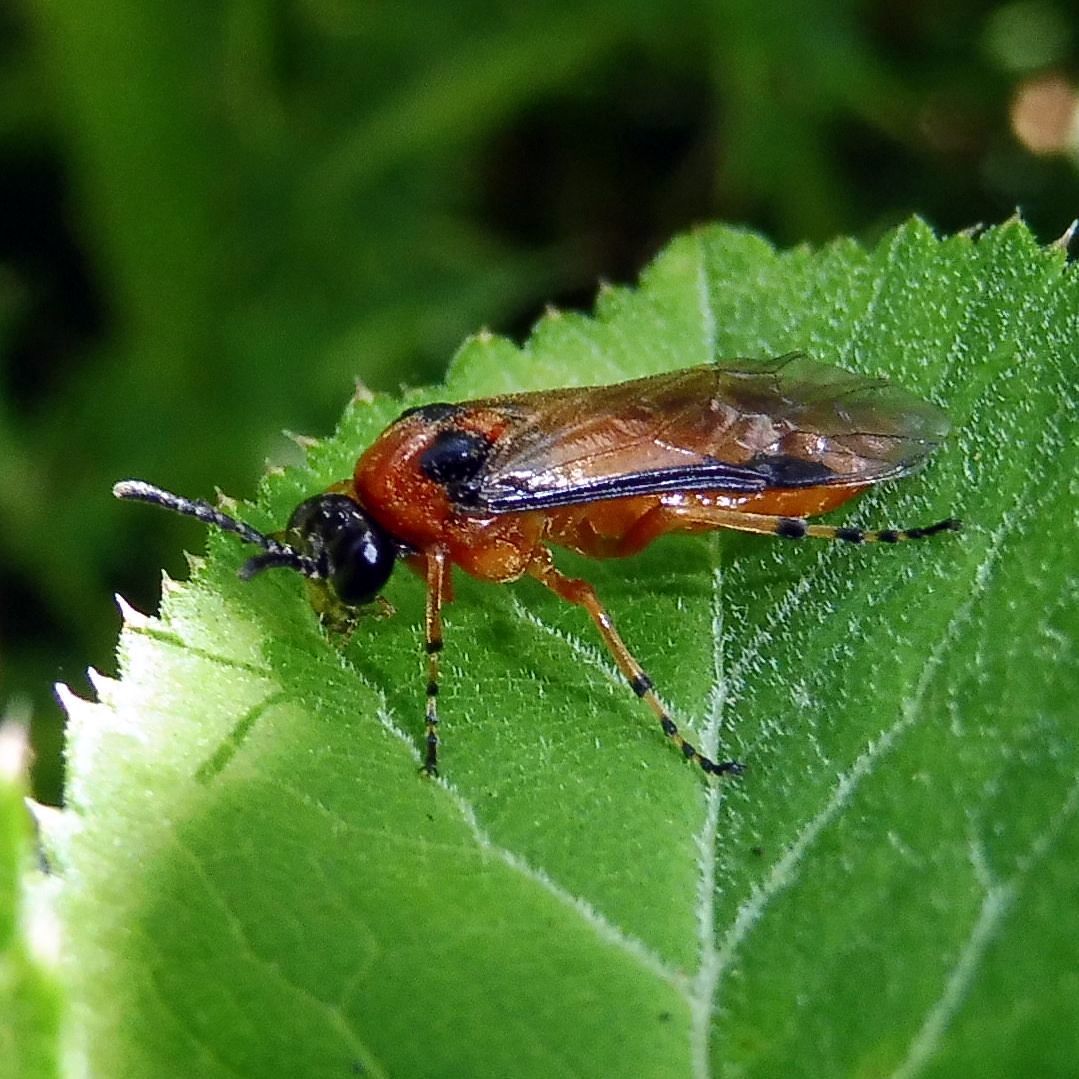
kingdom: Animalia
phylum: Arthropoda
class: Insecta
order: Hymenoptera
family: Tenthredinidae
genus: Athalia
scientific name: Athalia rosae
